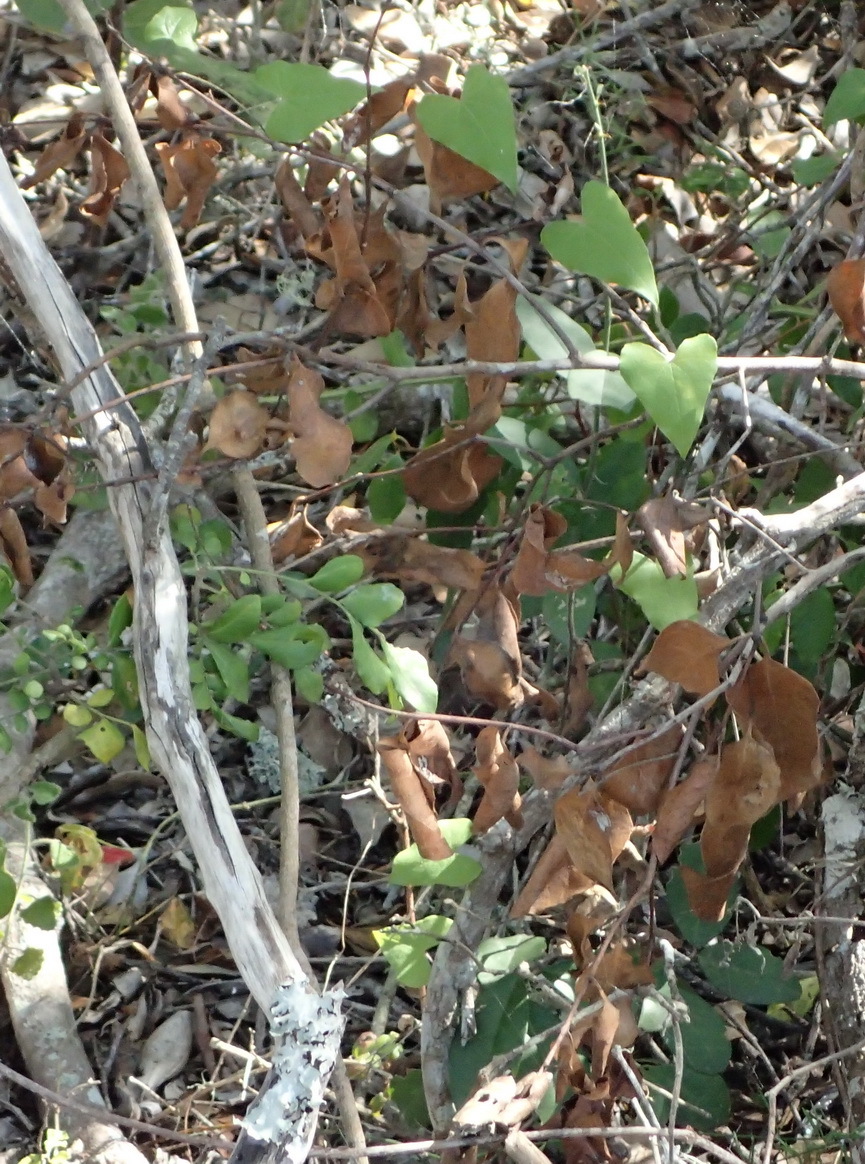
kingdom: Plantae
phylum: Tracheophyta
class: Liliopsida
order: Dioscoreales
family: Dioscoreaceae
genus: Dioscorea
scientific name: Dioscorea mundii
